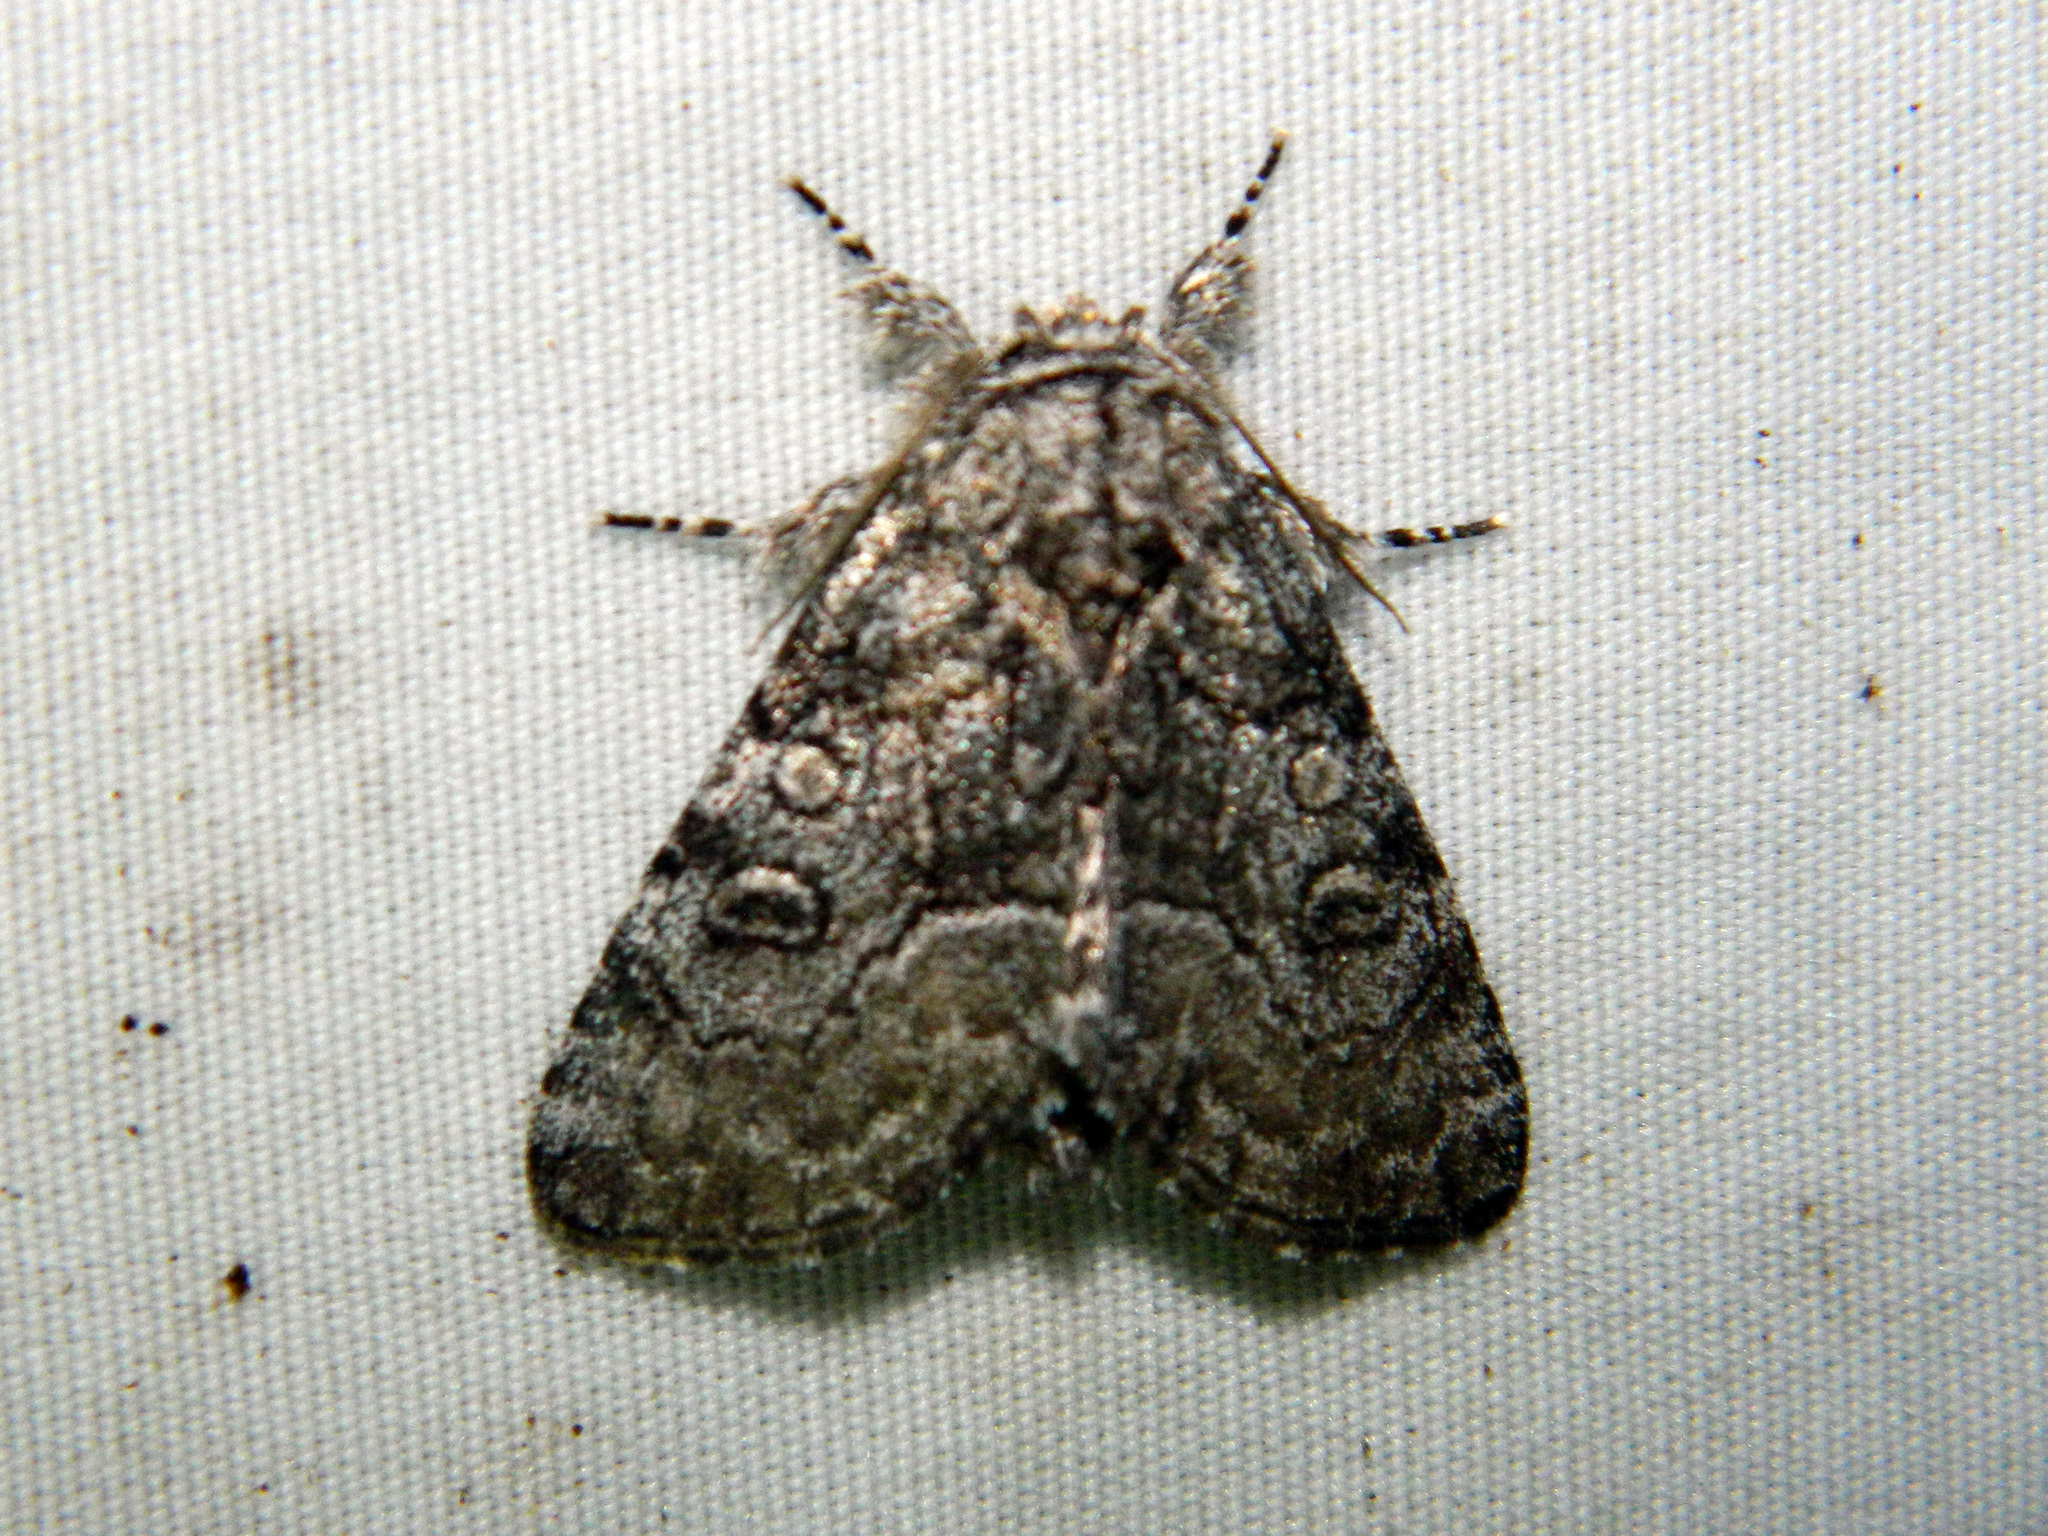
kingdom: Animalia
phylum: Arthropoda
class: Insecta
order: Lepidoptera
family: Noctuidae
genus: Raphia
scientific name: Raphia frater
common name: Brother
